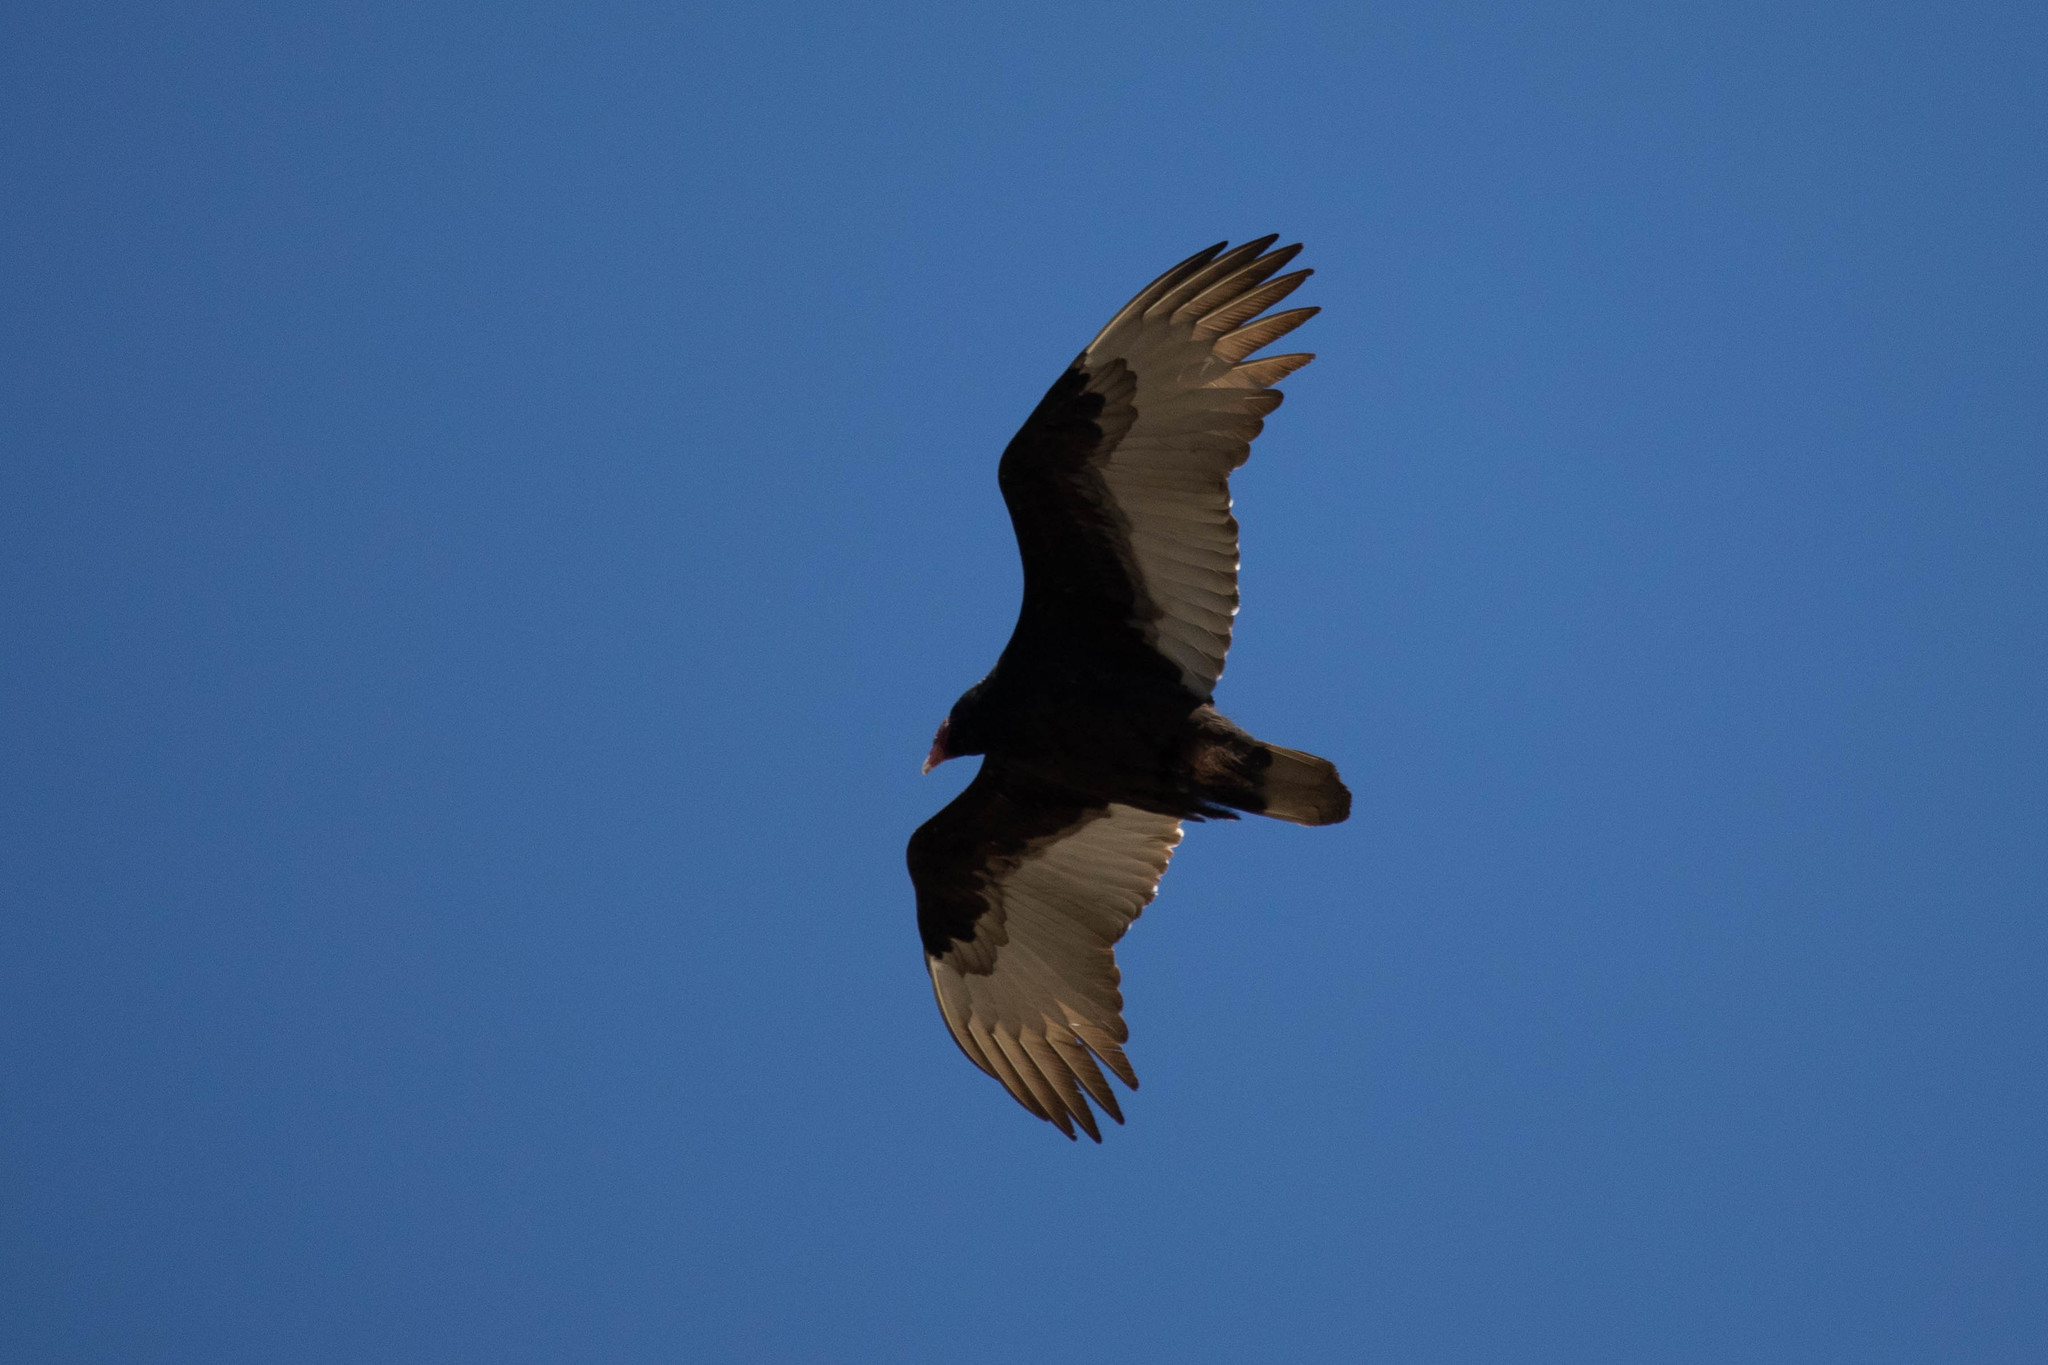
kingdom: Animalia
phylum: Chordata
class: Aves
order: Accipitriformes
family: Cathartidae
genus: Cathartes
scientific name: Cathartes aura
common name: Turkey vulture
